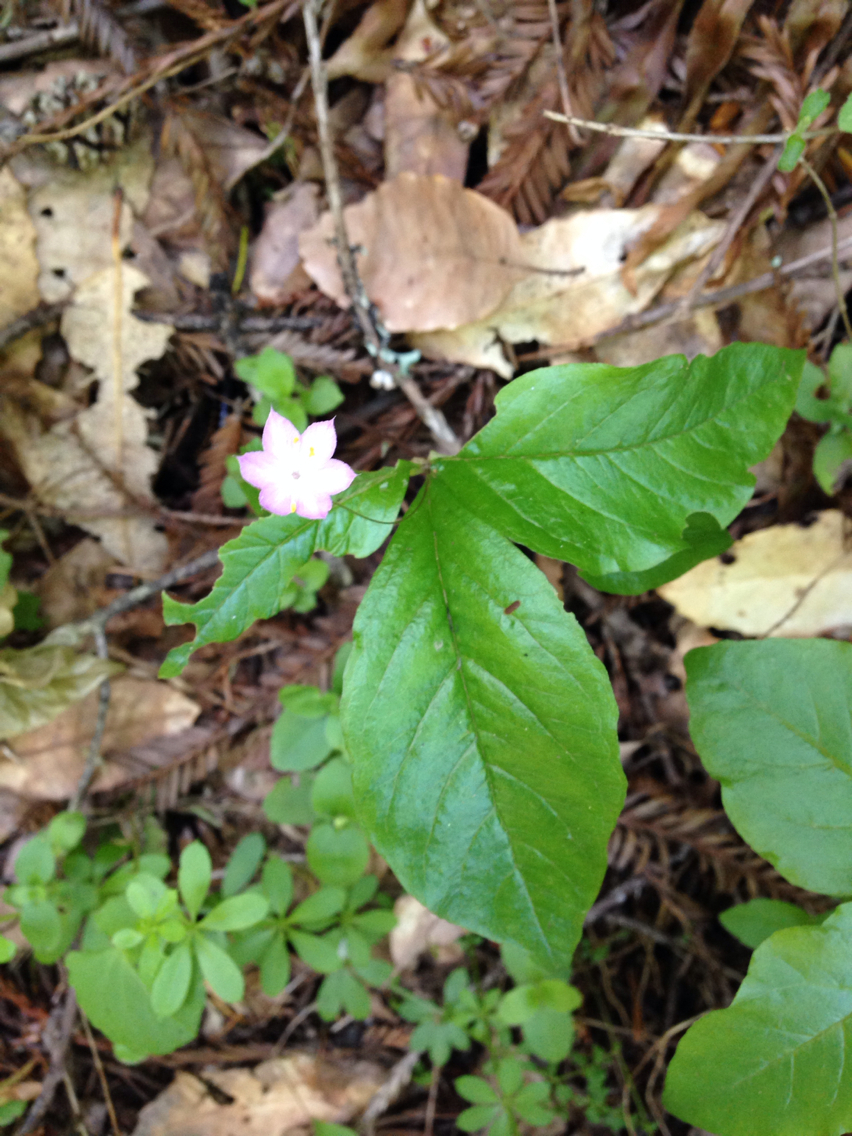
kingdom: Plantae
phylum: Tracheophyta
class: Magnoliopsida
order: Ericales
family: Primulaceae
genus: Lysimachia
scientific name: Lysimachia latifolia
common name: Pacific starflower
